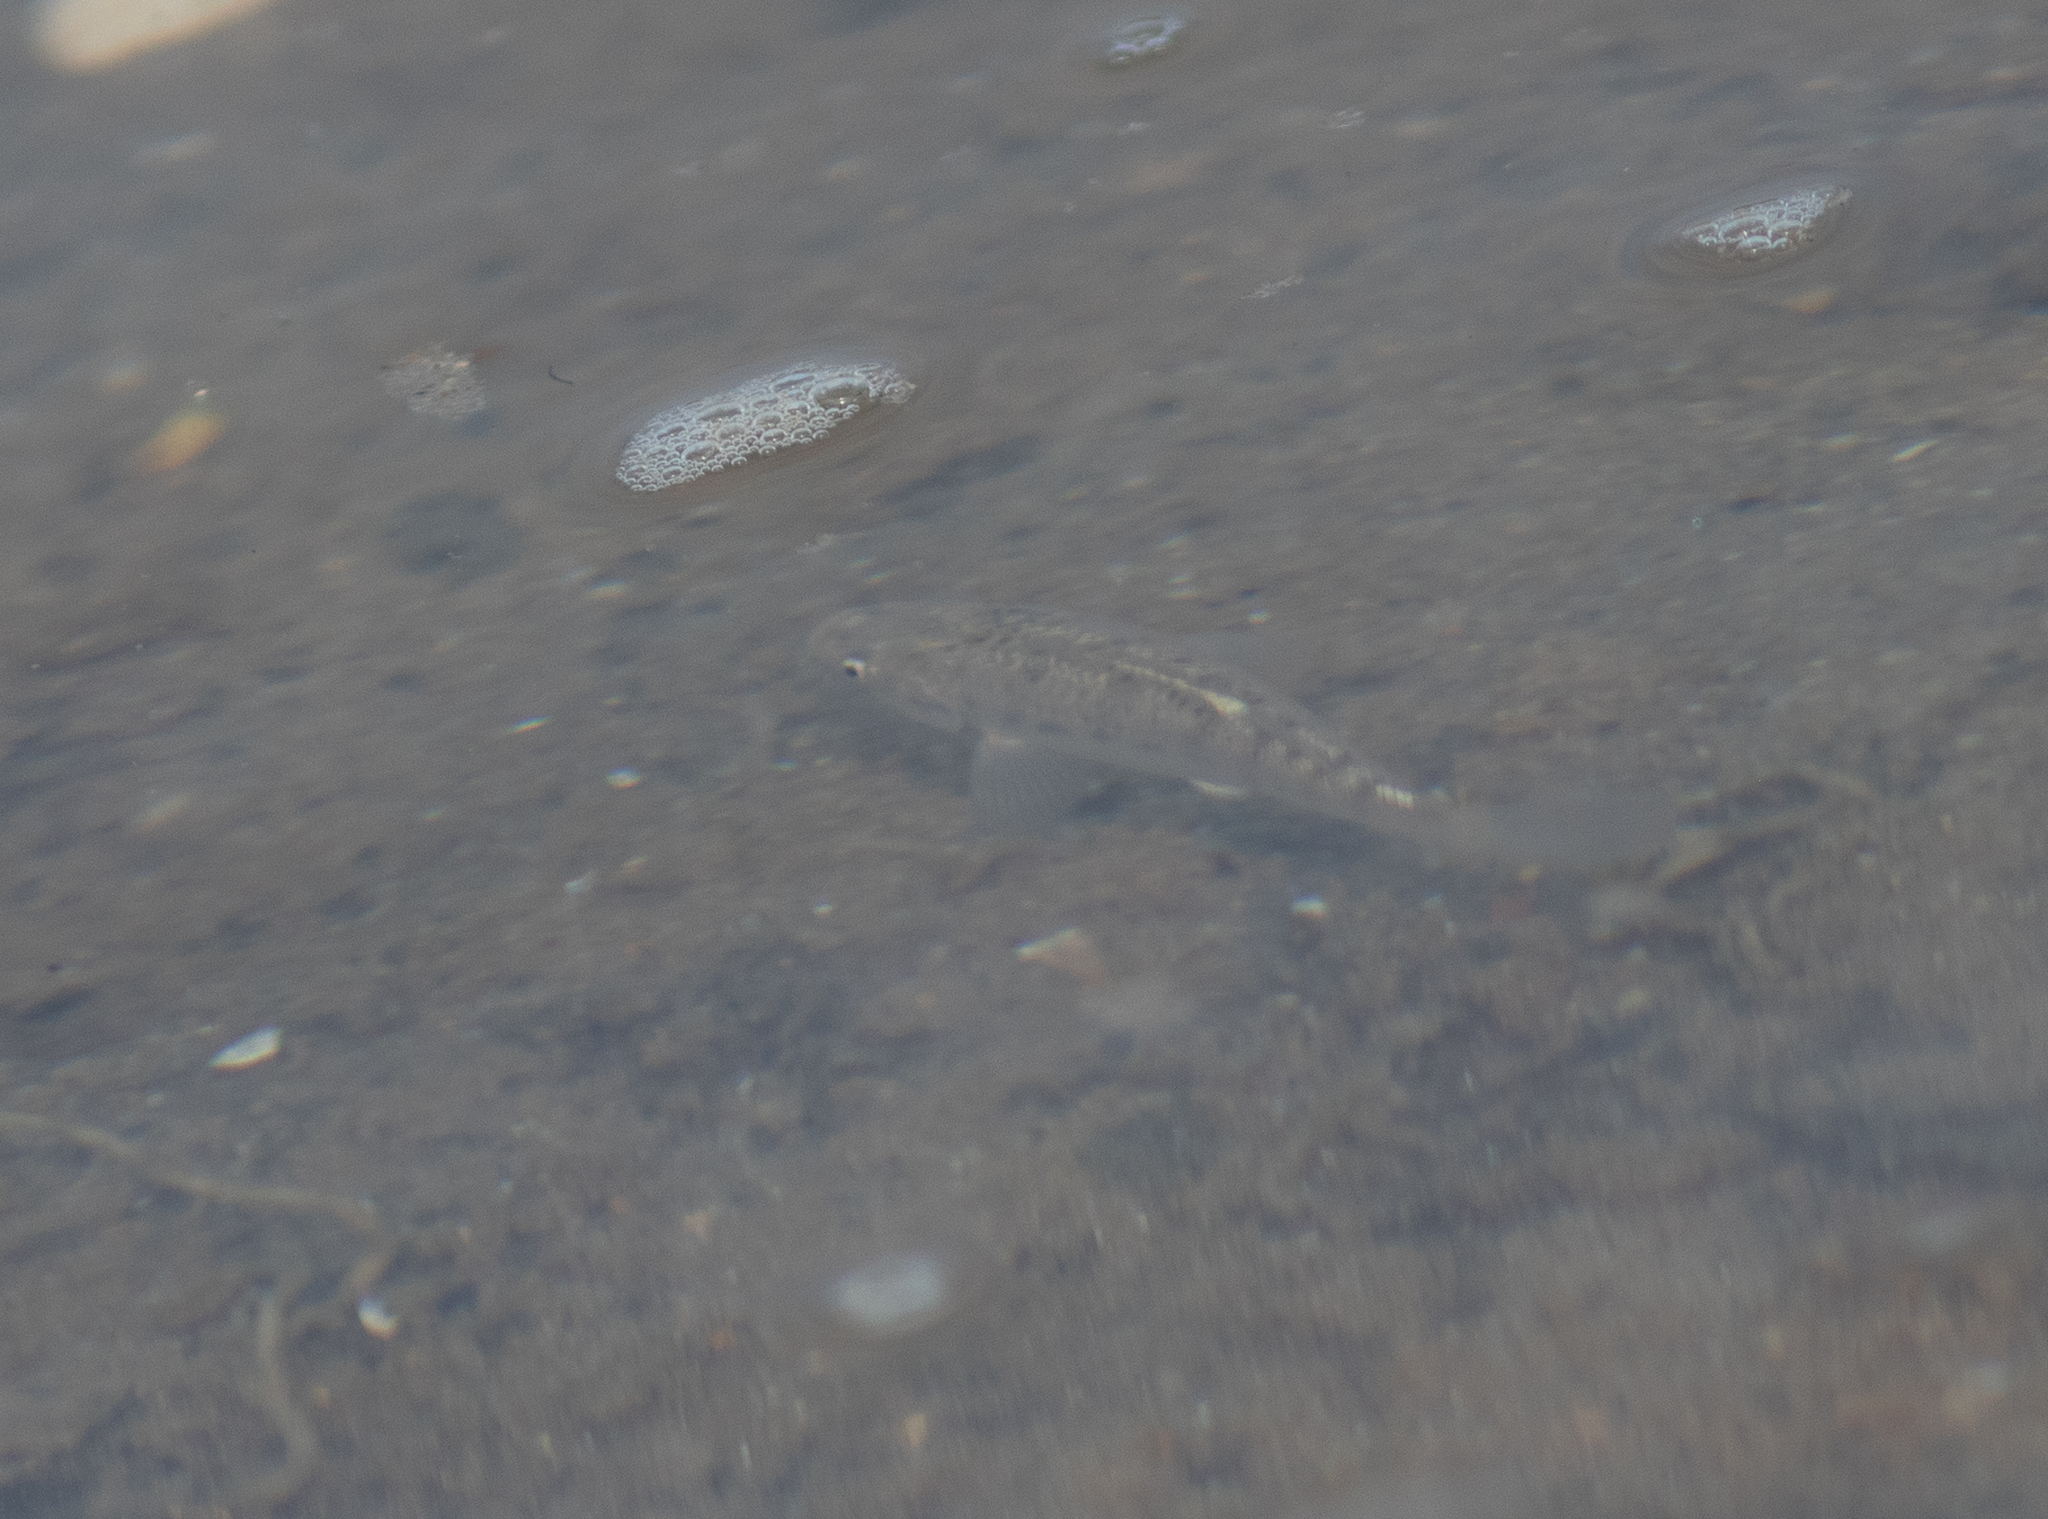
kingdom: Animalia
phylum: Chordata
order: Cyprinodontiformes
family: Fundulidae
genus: Fundulus
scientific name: Fundulus majalis
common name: Striped killifish
